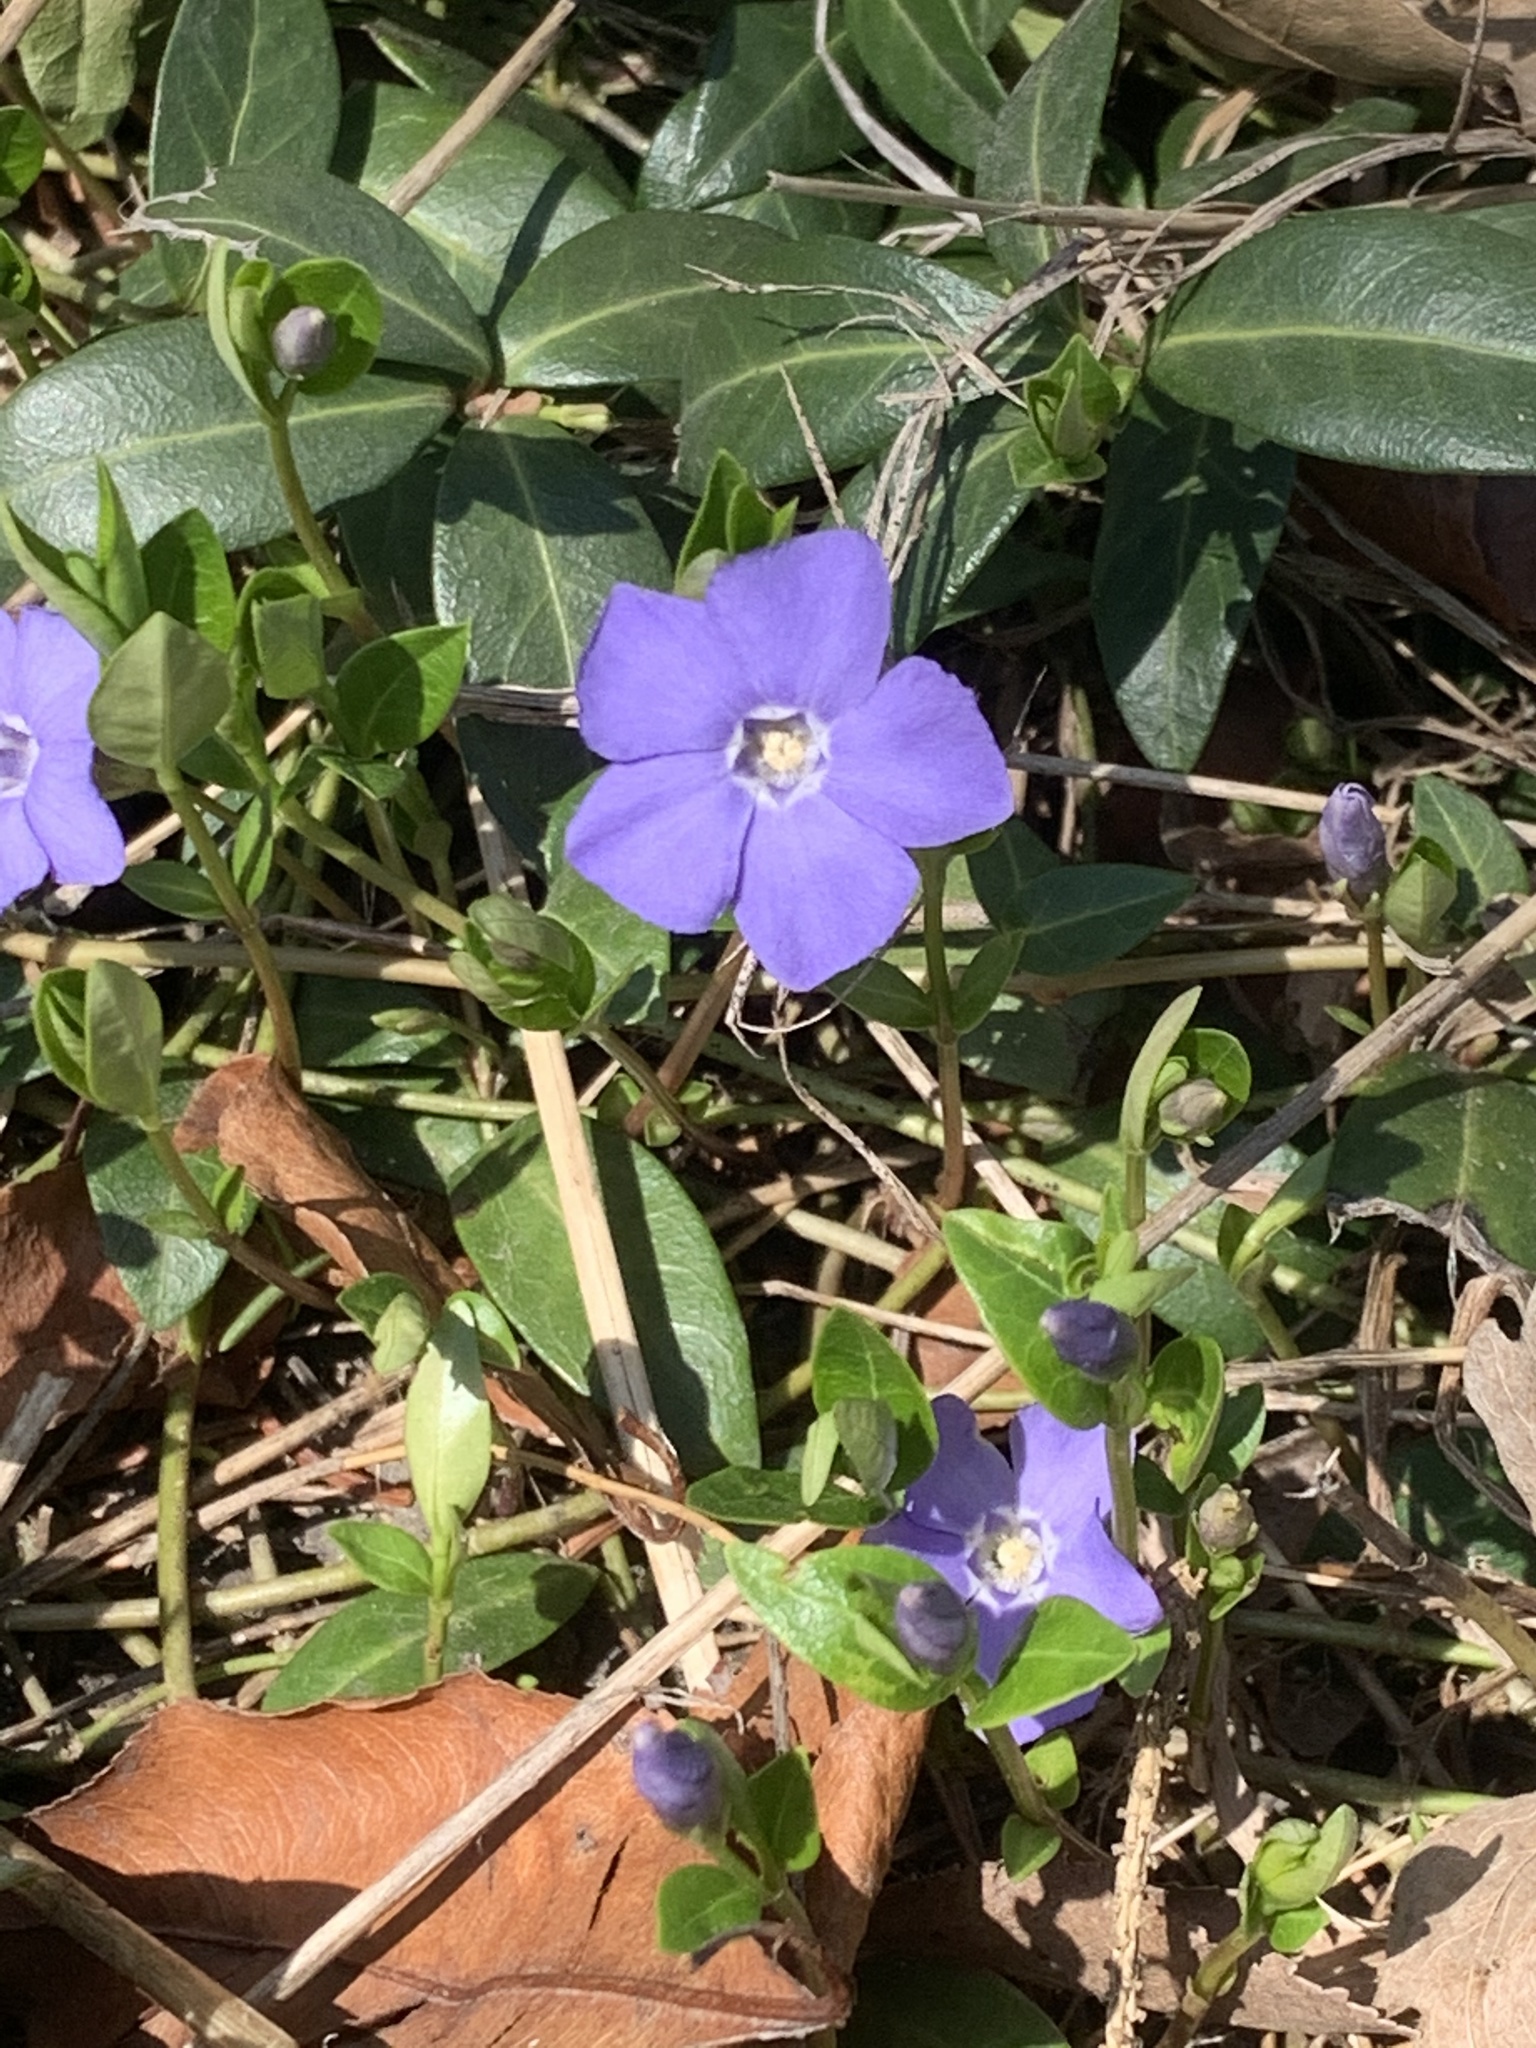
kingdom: Plantae
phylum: Tracheophyta
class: Magnoliopsida
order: Gentianales
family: Apocynaceae
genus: Vinca
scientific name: Vinca minor
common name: Lesser periwinkle
